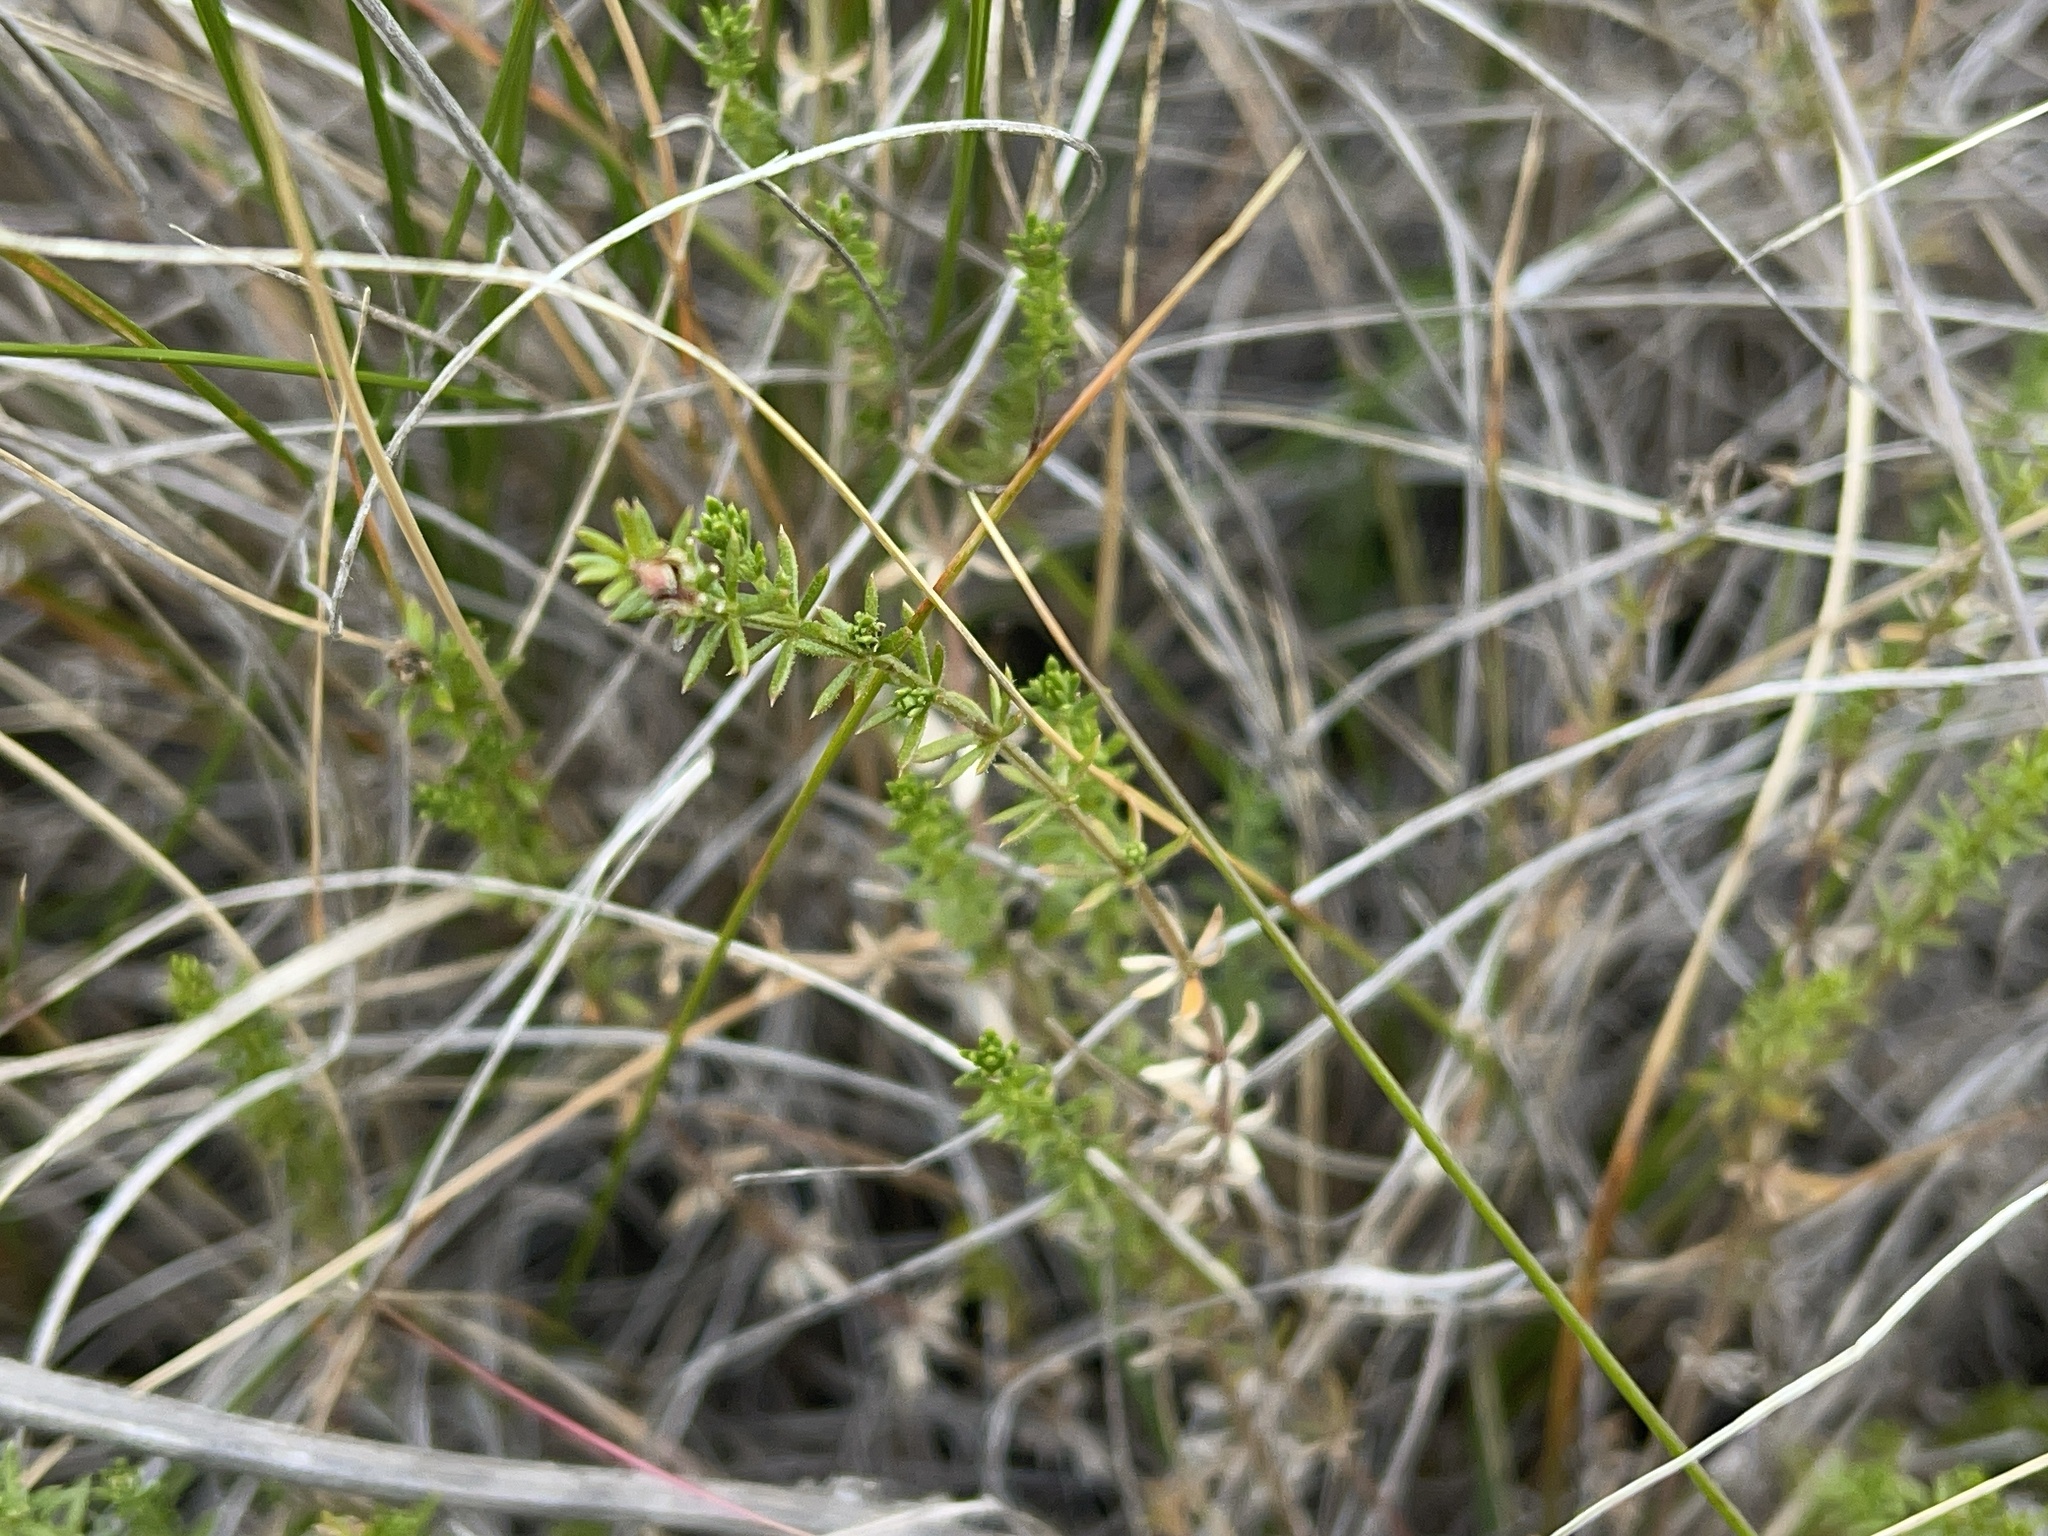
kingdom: Plantae
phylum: Tracheophyta
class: Magnoliopsida
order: Gentianales
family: Rubiaceae
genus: Asperula
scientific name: Asperula conferta
